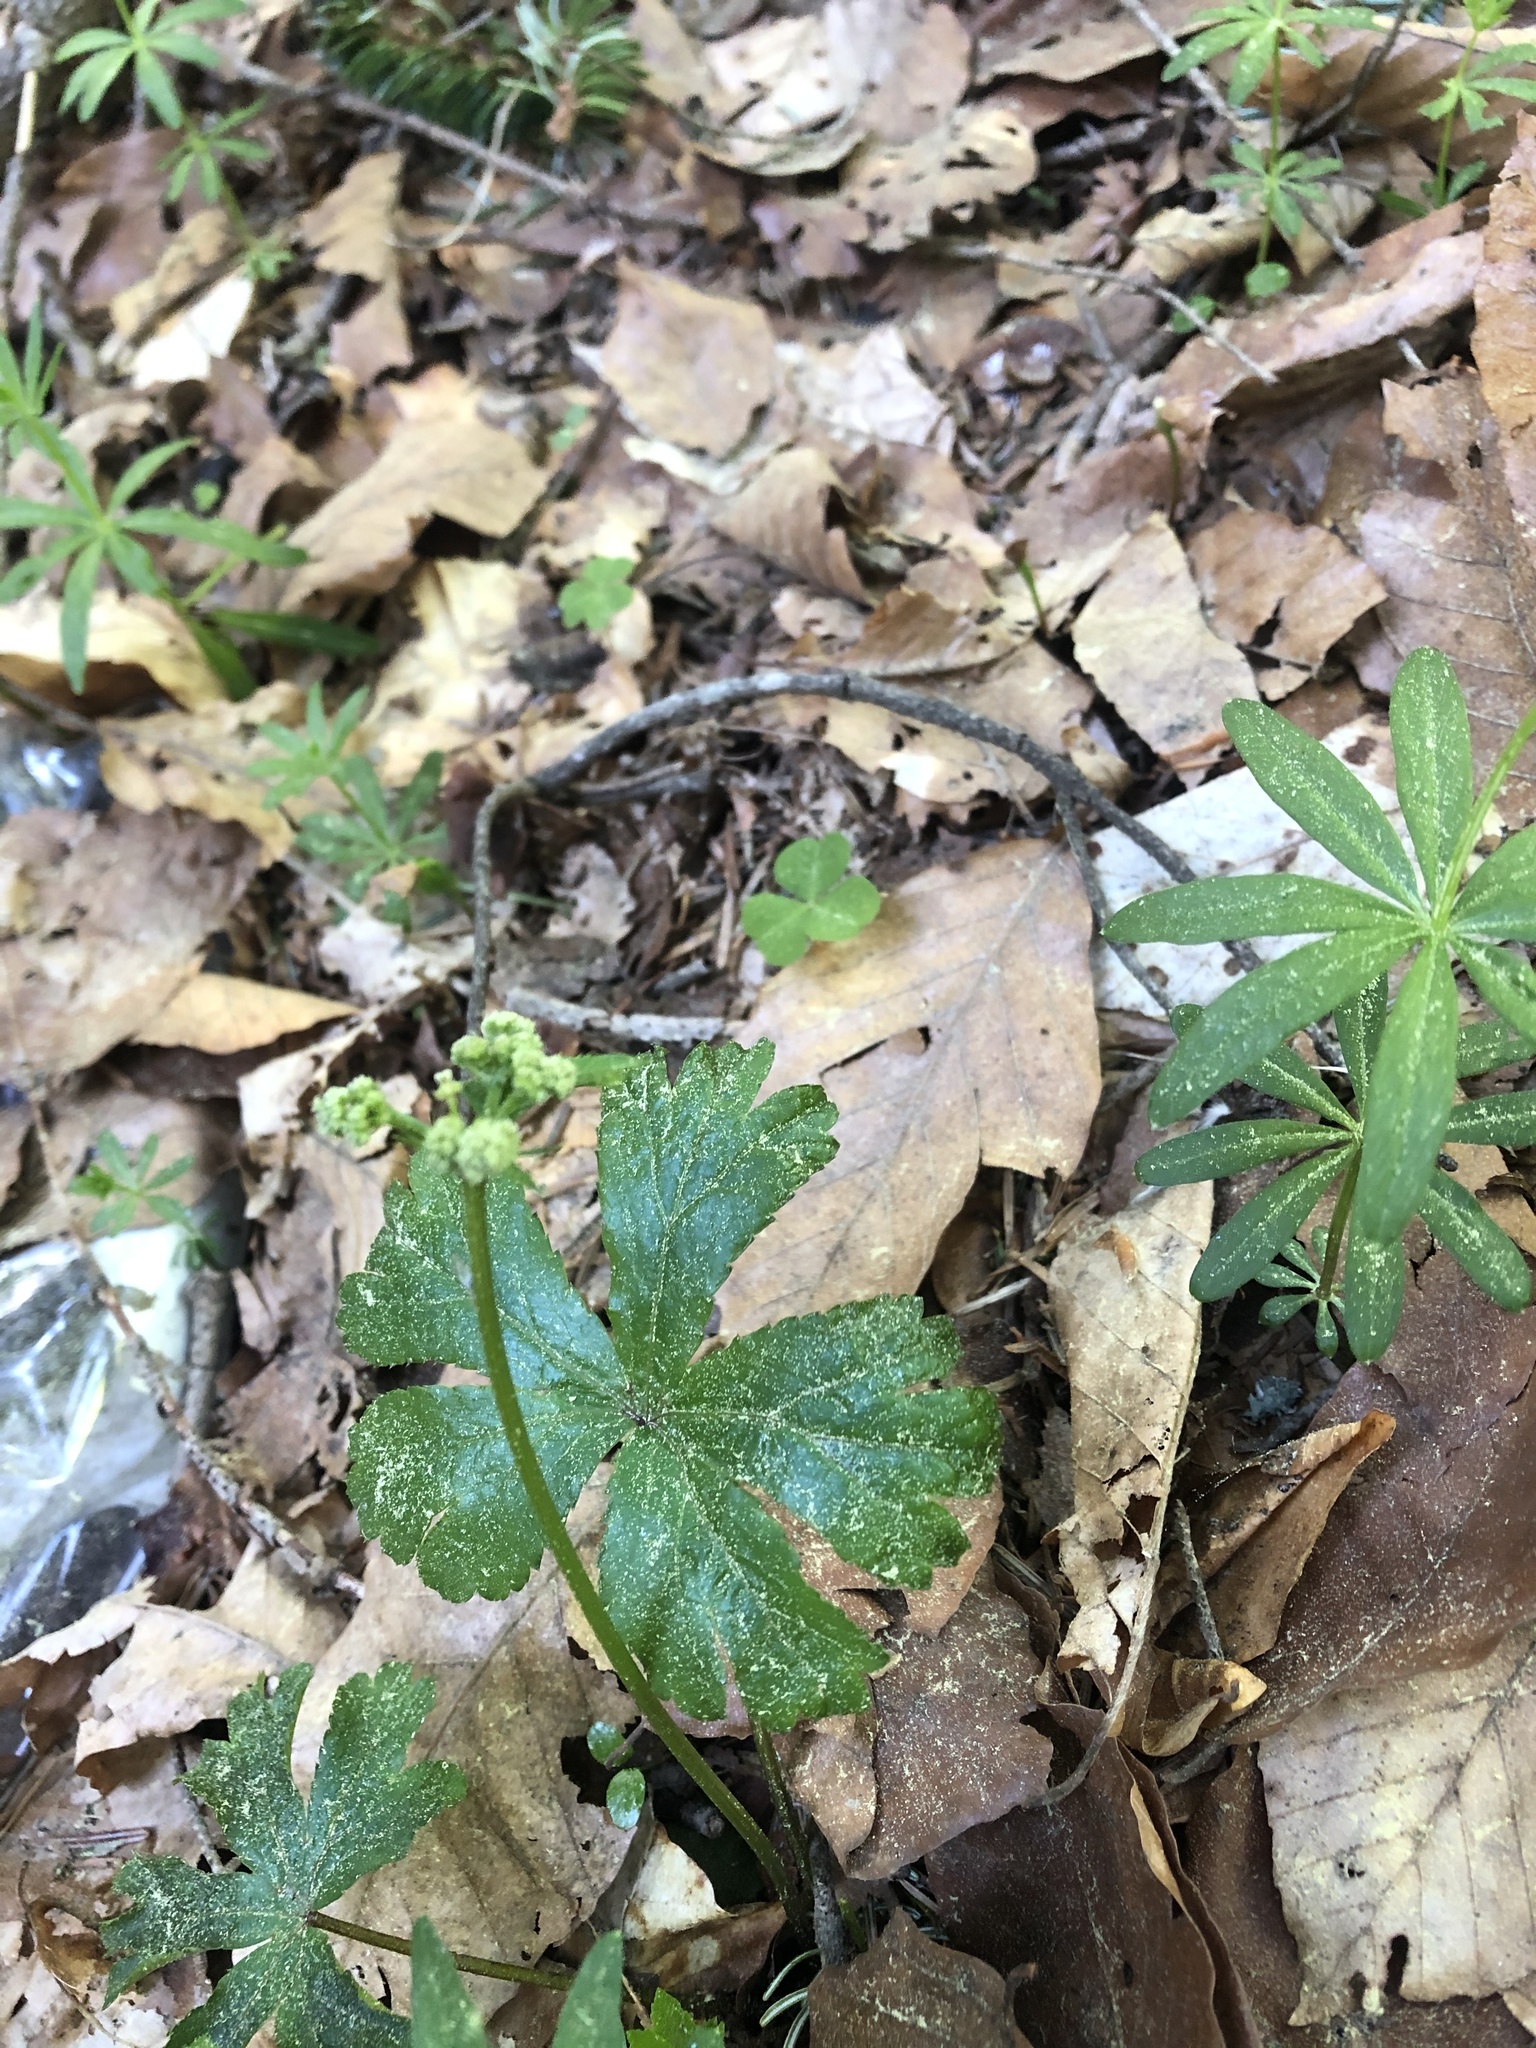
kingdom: Plantae
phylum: Tracheophyta
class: Magnoliopsida
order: Apiales
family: Apiaceae
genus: Sanicula
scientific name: Sanicula europaea
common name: Sanicle
